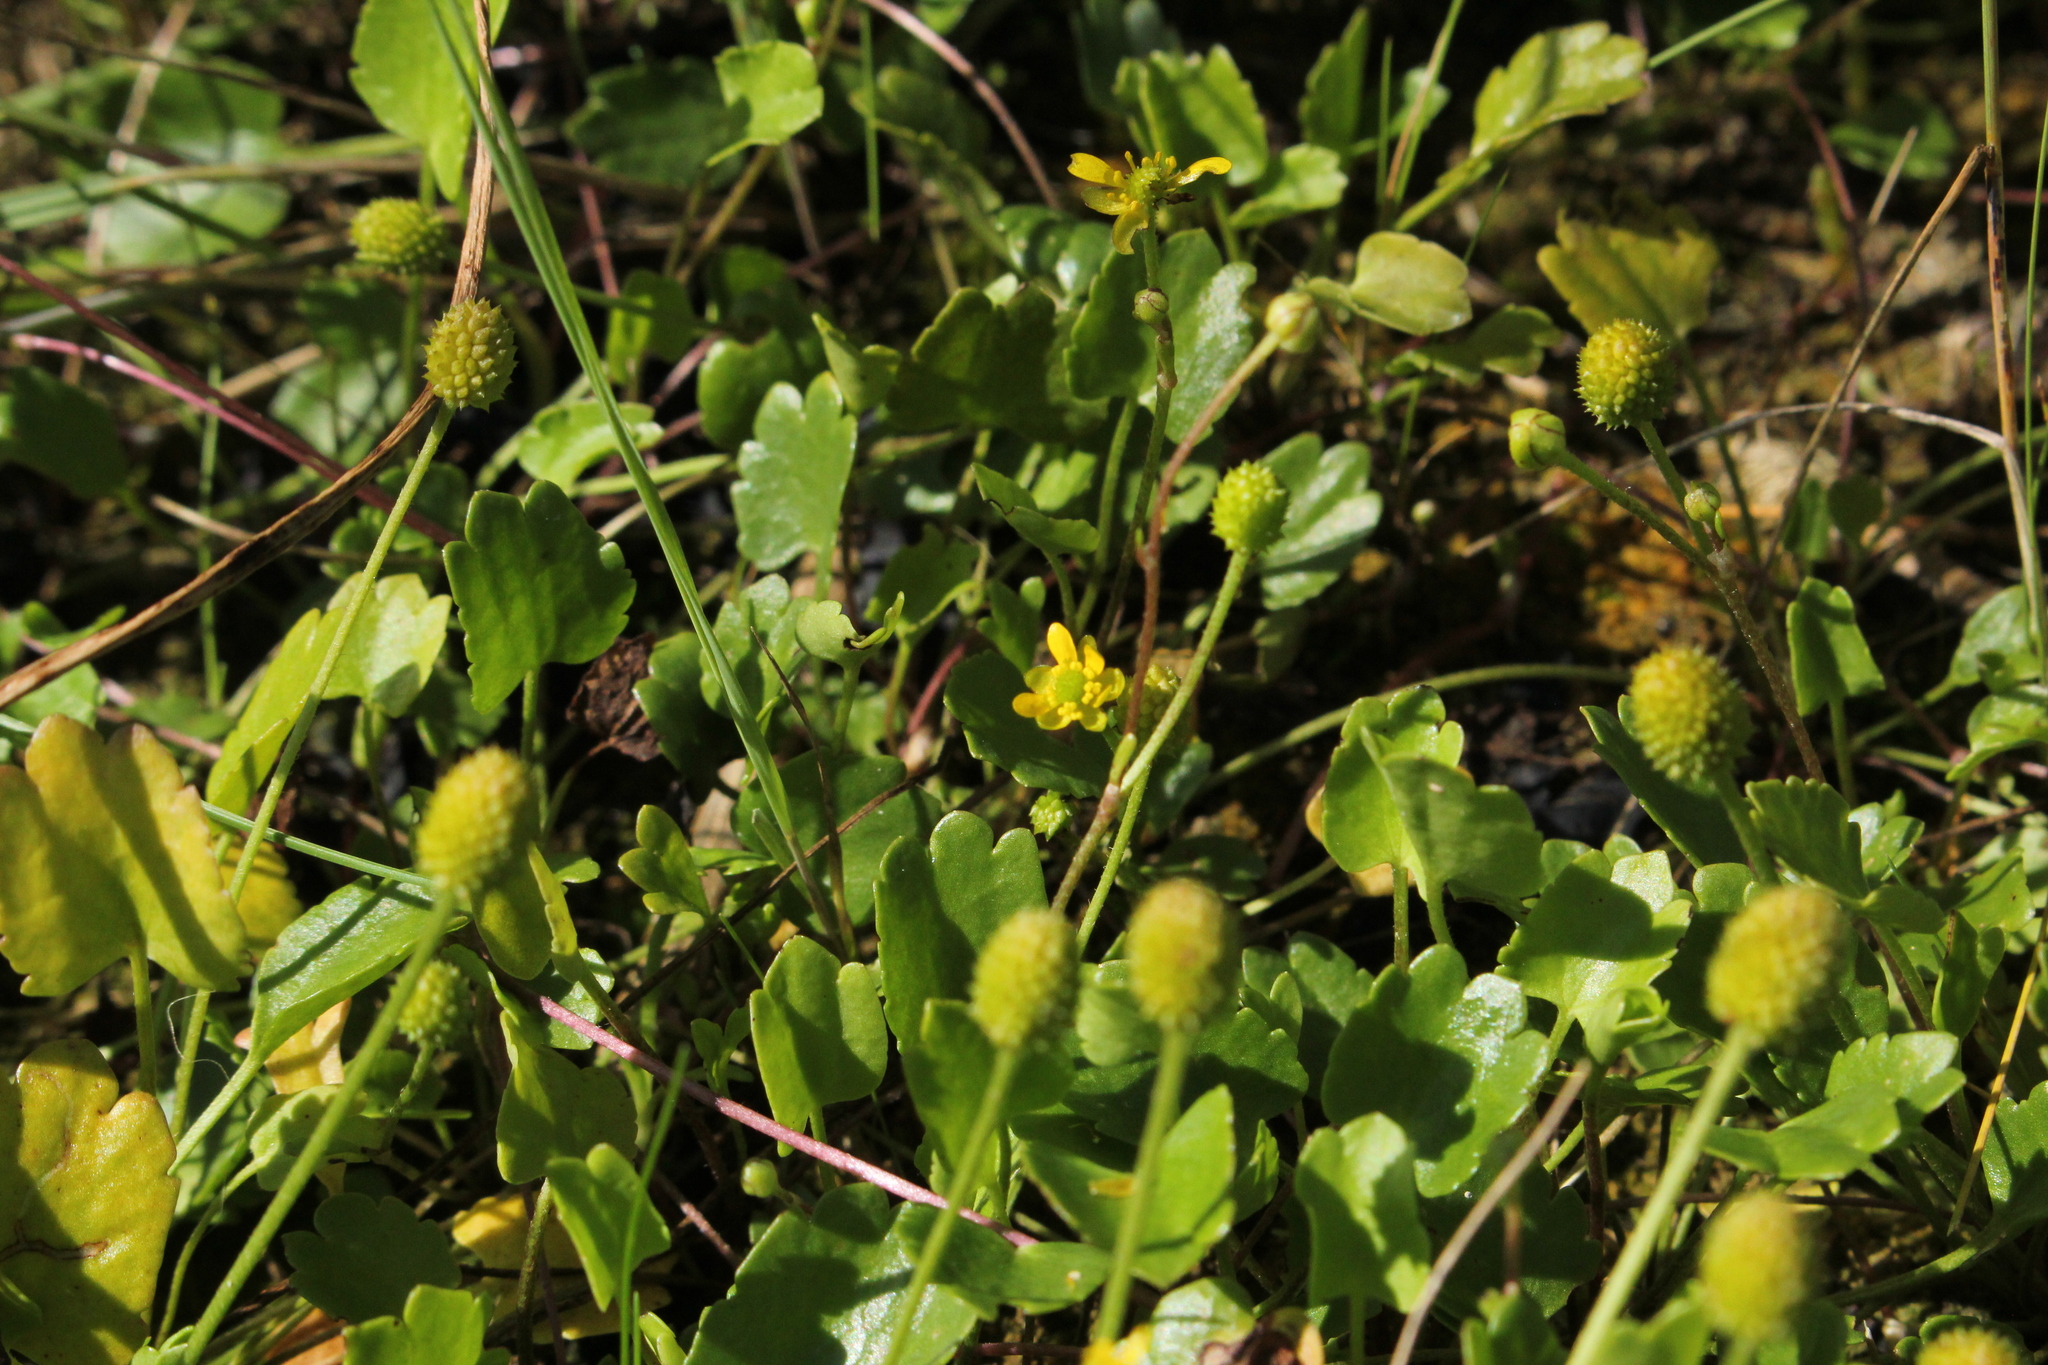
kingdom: Plantae
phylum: Tracheophyta
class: Magnoliopsida
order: Ranunculales
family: Ranunculaceae
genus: Halerpestes
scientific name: Halerpestes cymbalaria
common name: Seaside crowfoot
